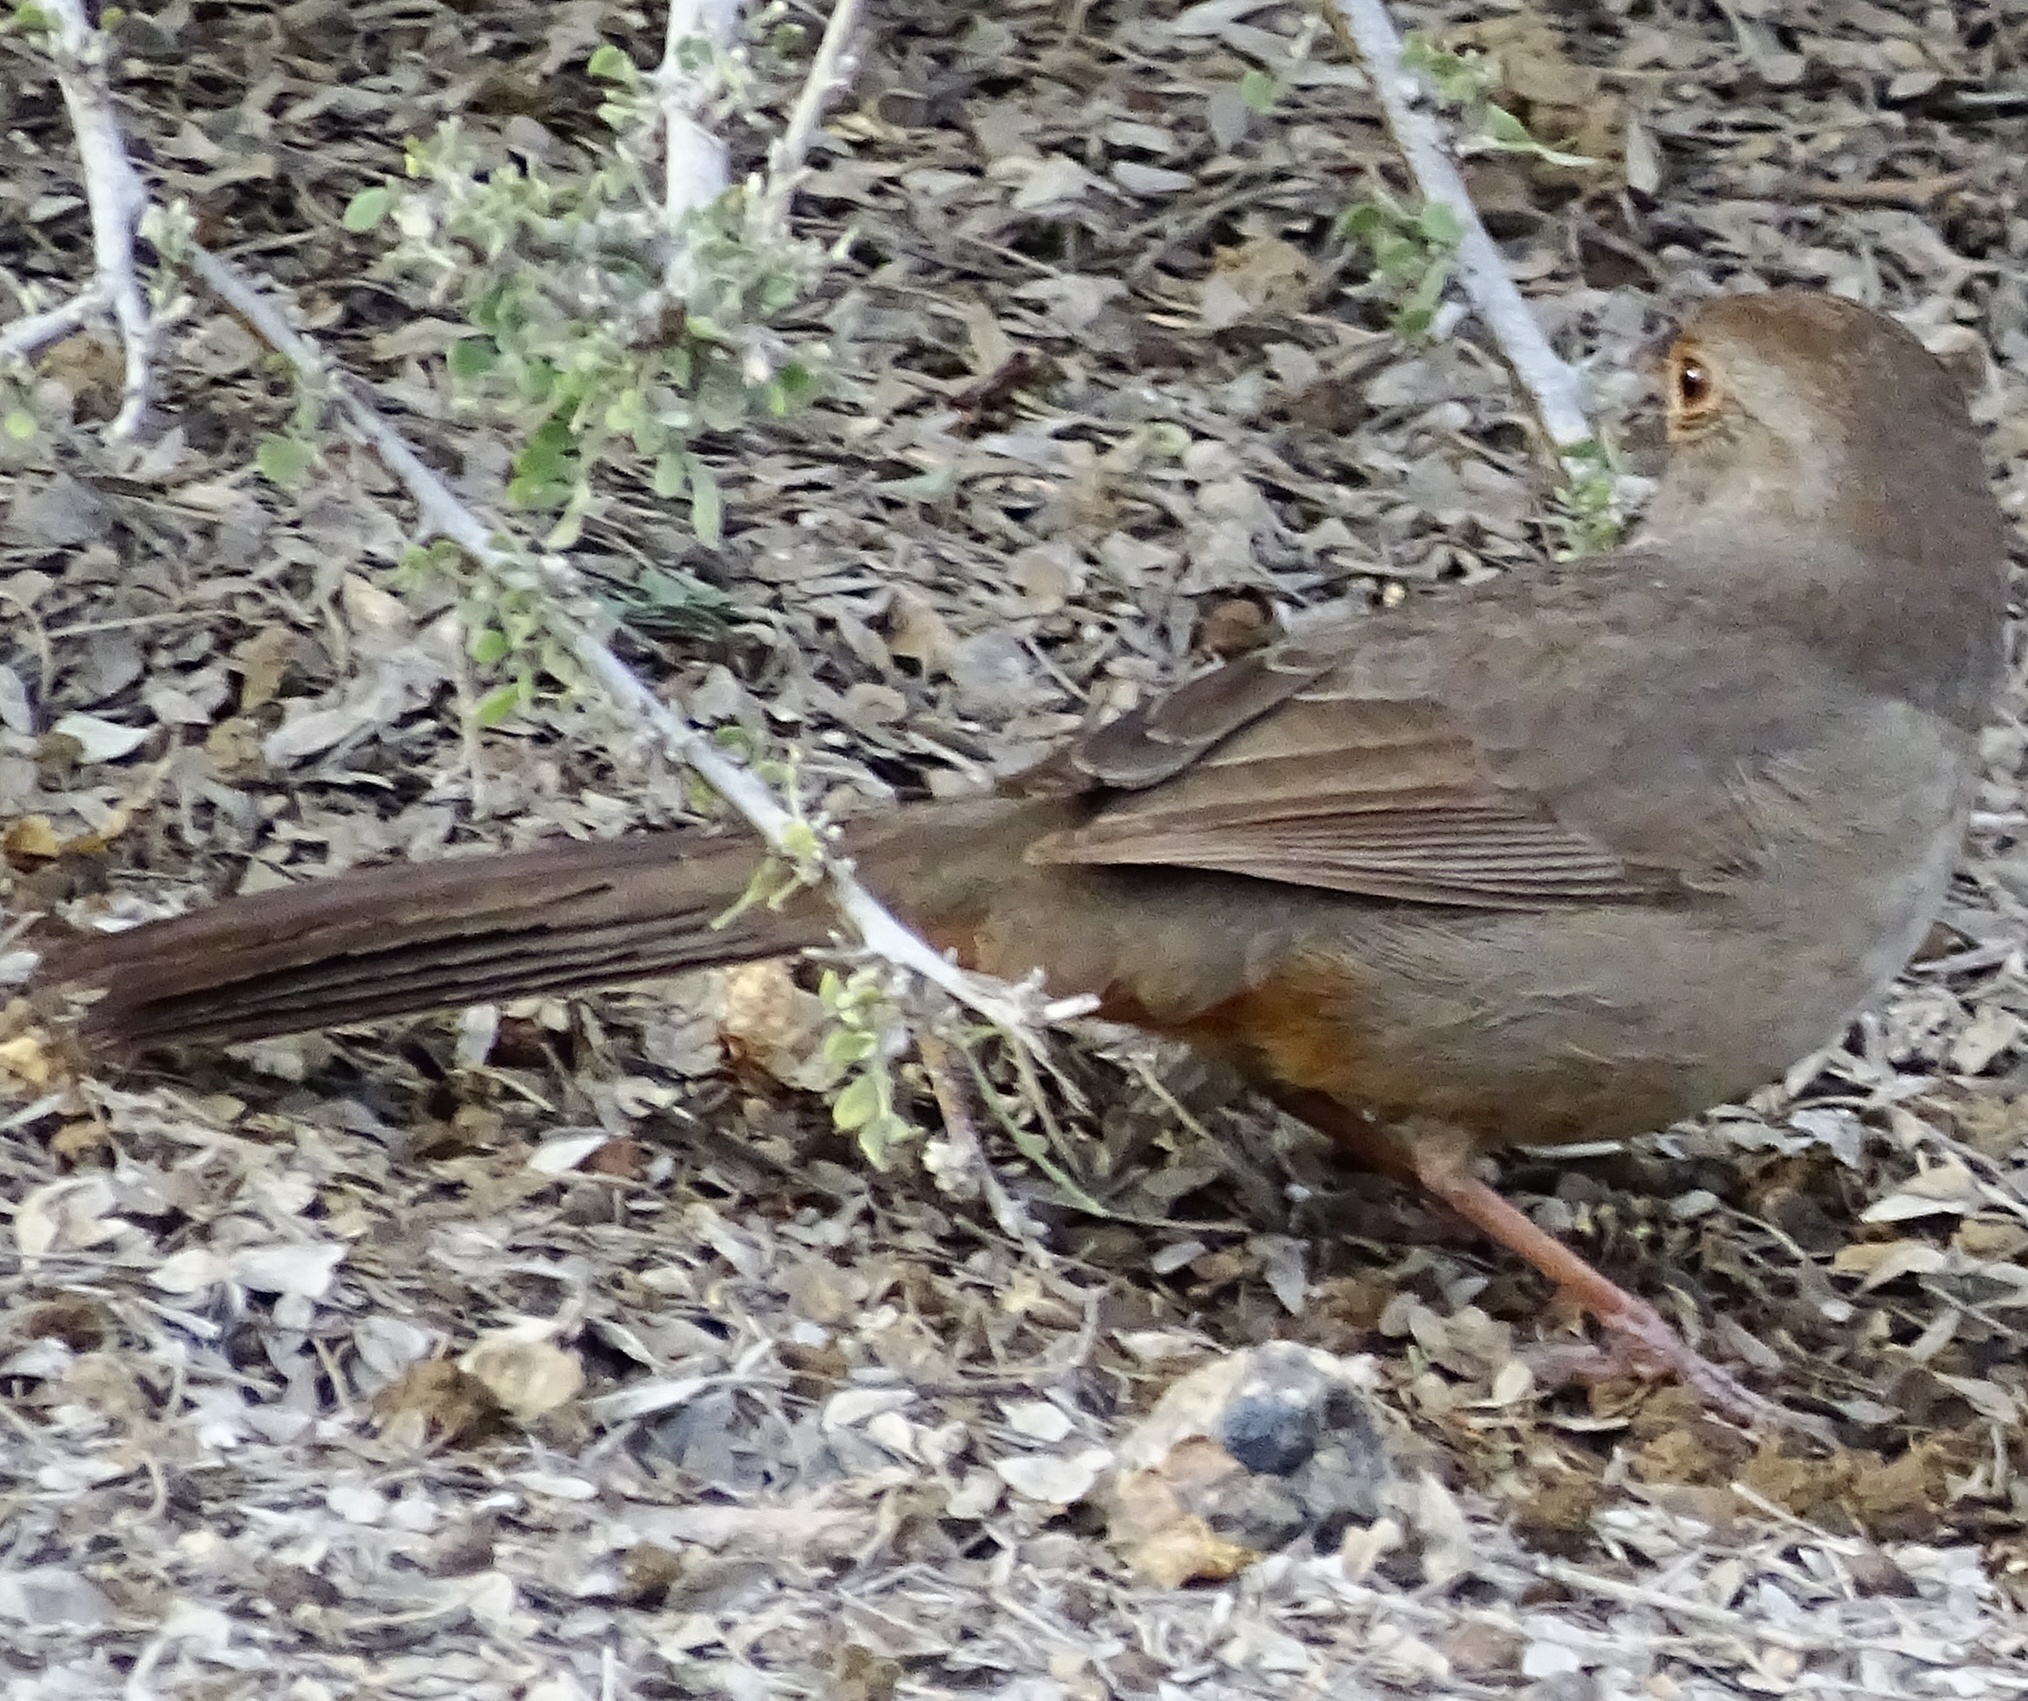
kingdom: Animalia
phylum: Chordata
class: Aves
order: Passeriformes
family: Passerellidae
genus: Melozone
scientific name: Melozone crissalis
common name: California towhee
